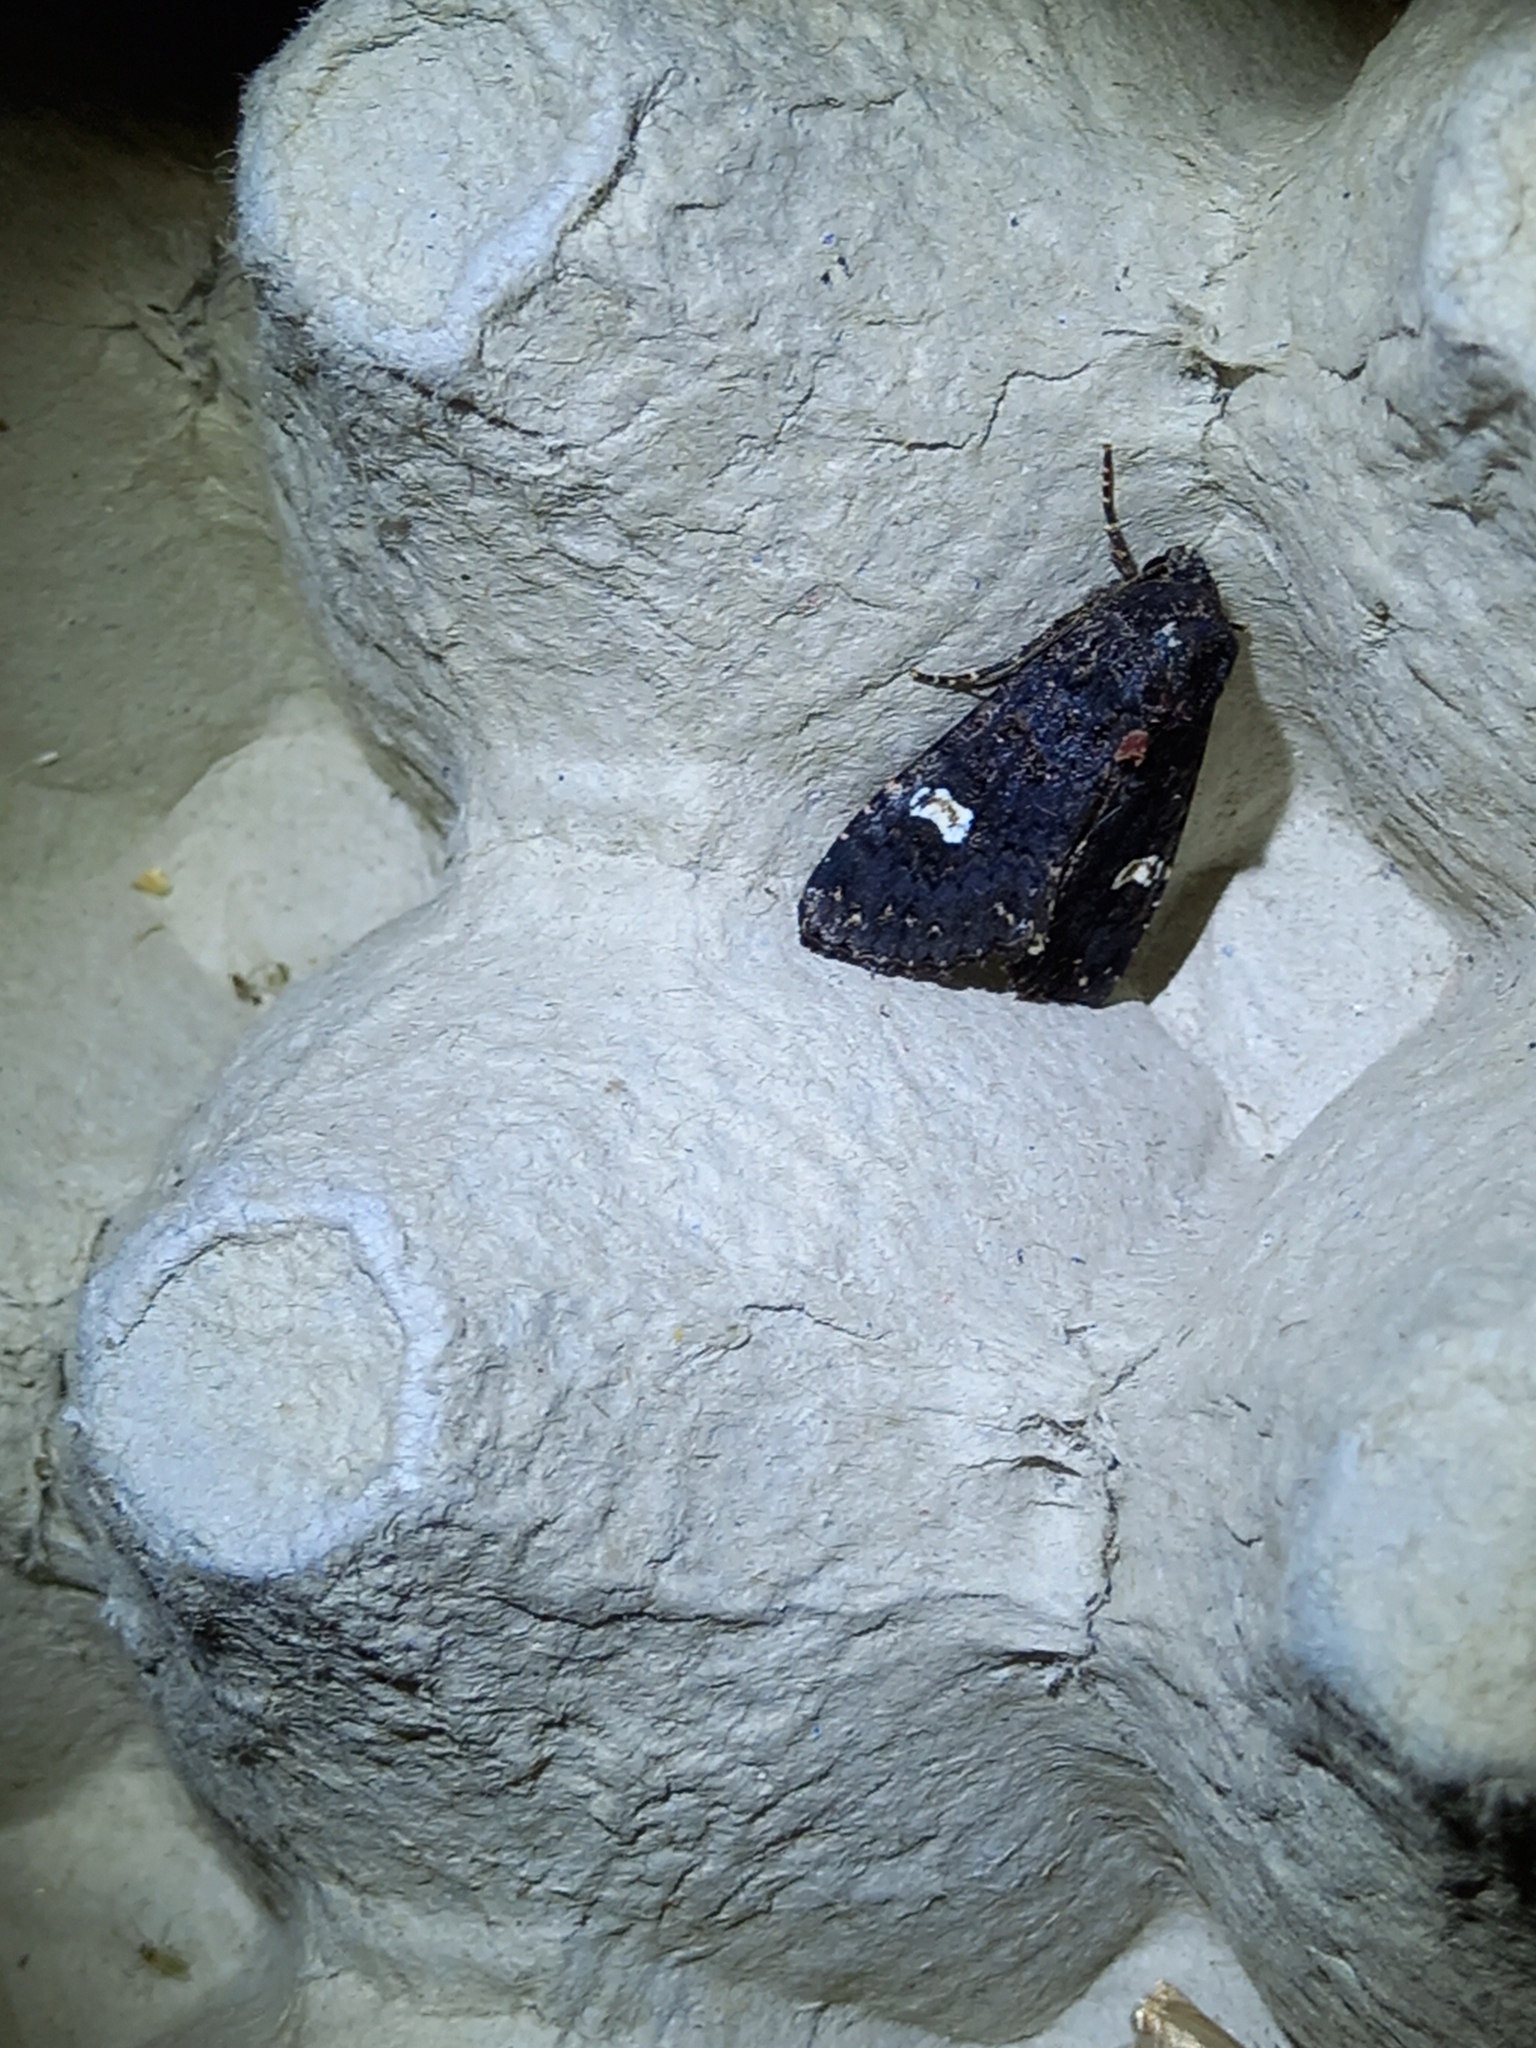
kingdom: Animalia
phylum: Arthropoda
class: Insecta
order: Lepidoptera
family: Noctuidae
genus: Melanchra
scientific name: Melanchra persicariae
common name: Dot moth
